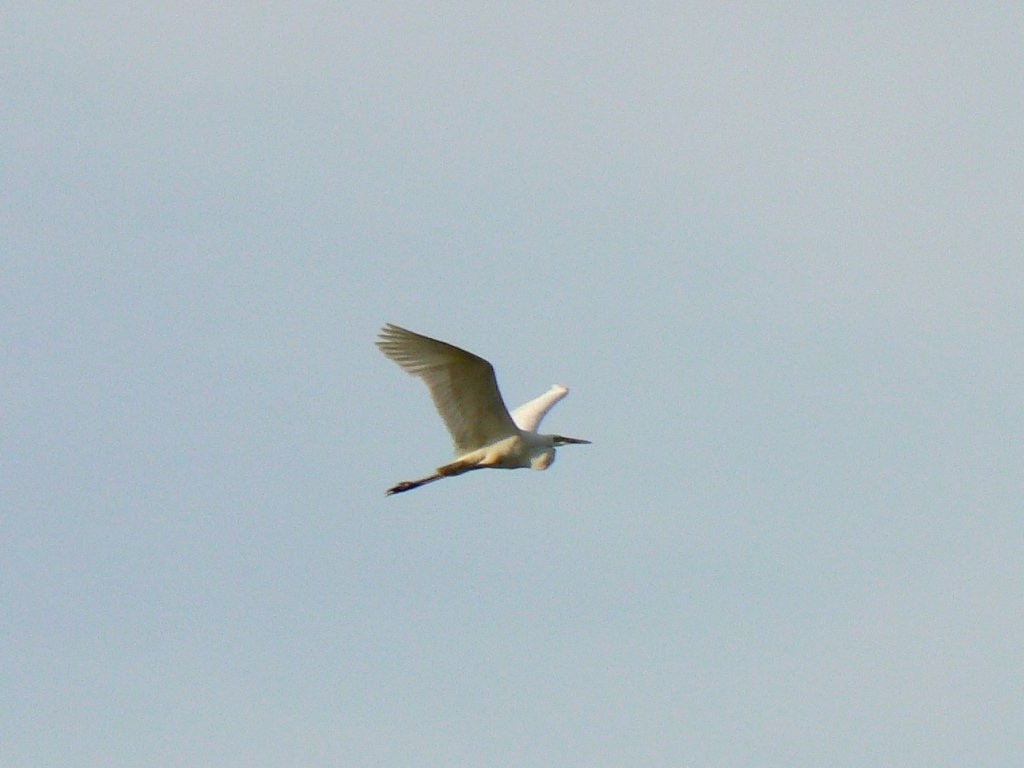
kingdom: Animalia
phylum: Chordata
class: Aves
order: Pelecaniformes
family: Ardeidae
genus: Ardea
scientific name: Ardea alba
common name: Great egret
